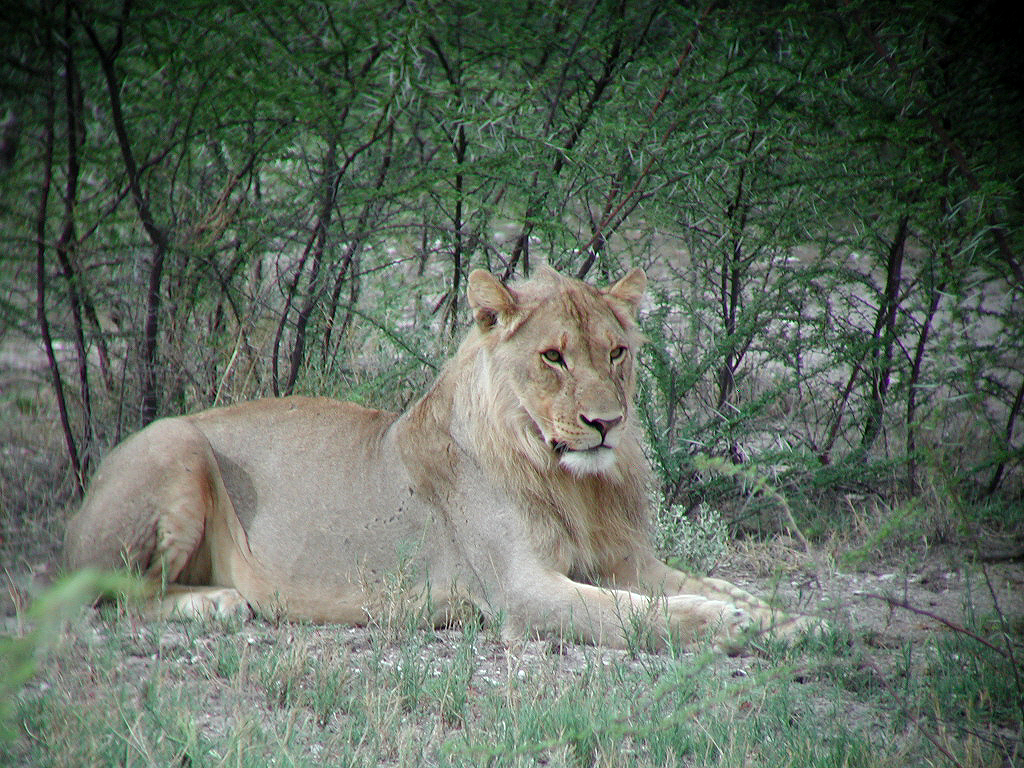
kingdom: Animalia
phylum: Chordata
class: Mammalia
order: Carnivora
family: Felidae
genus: Panthera
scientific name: Panthera leo
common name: Lion
